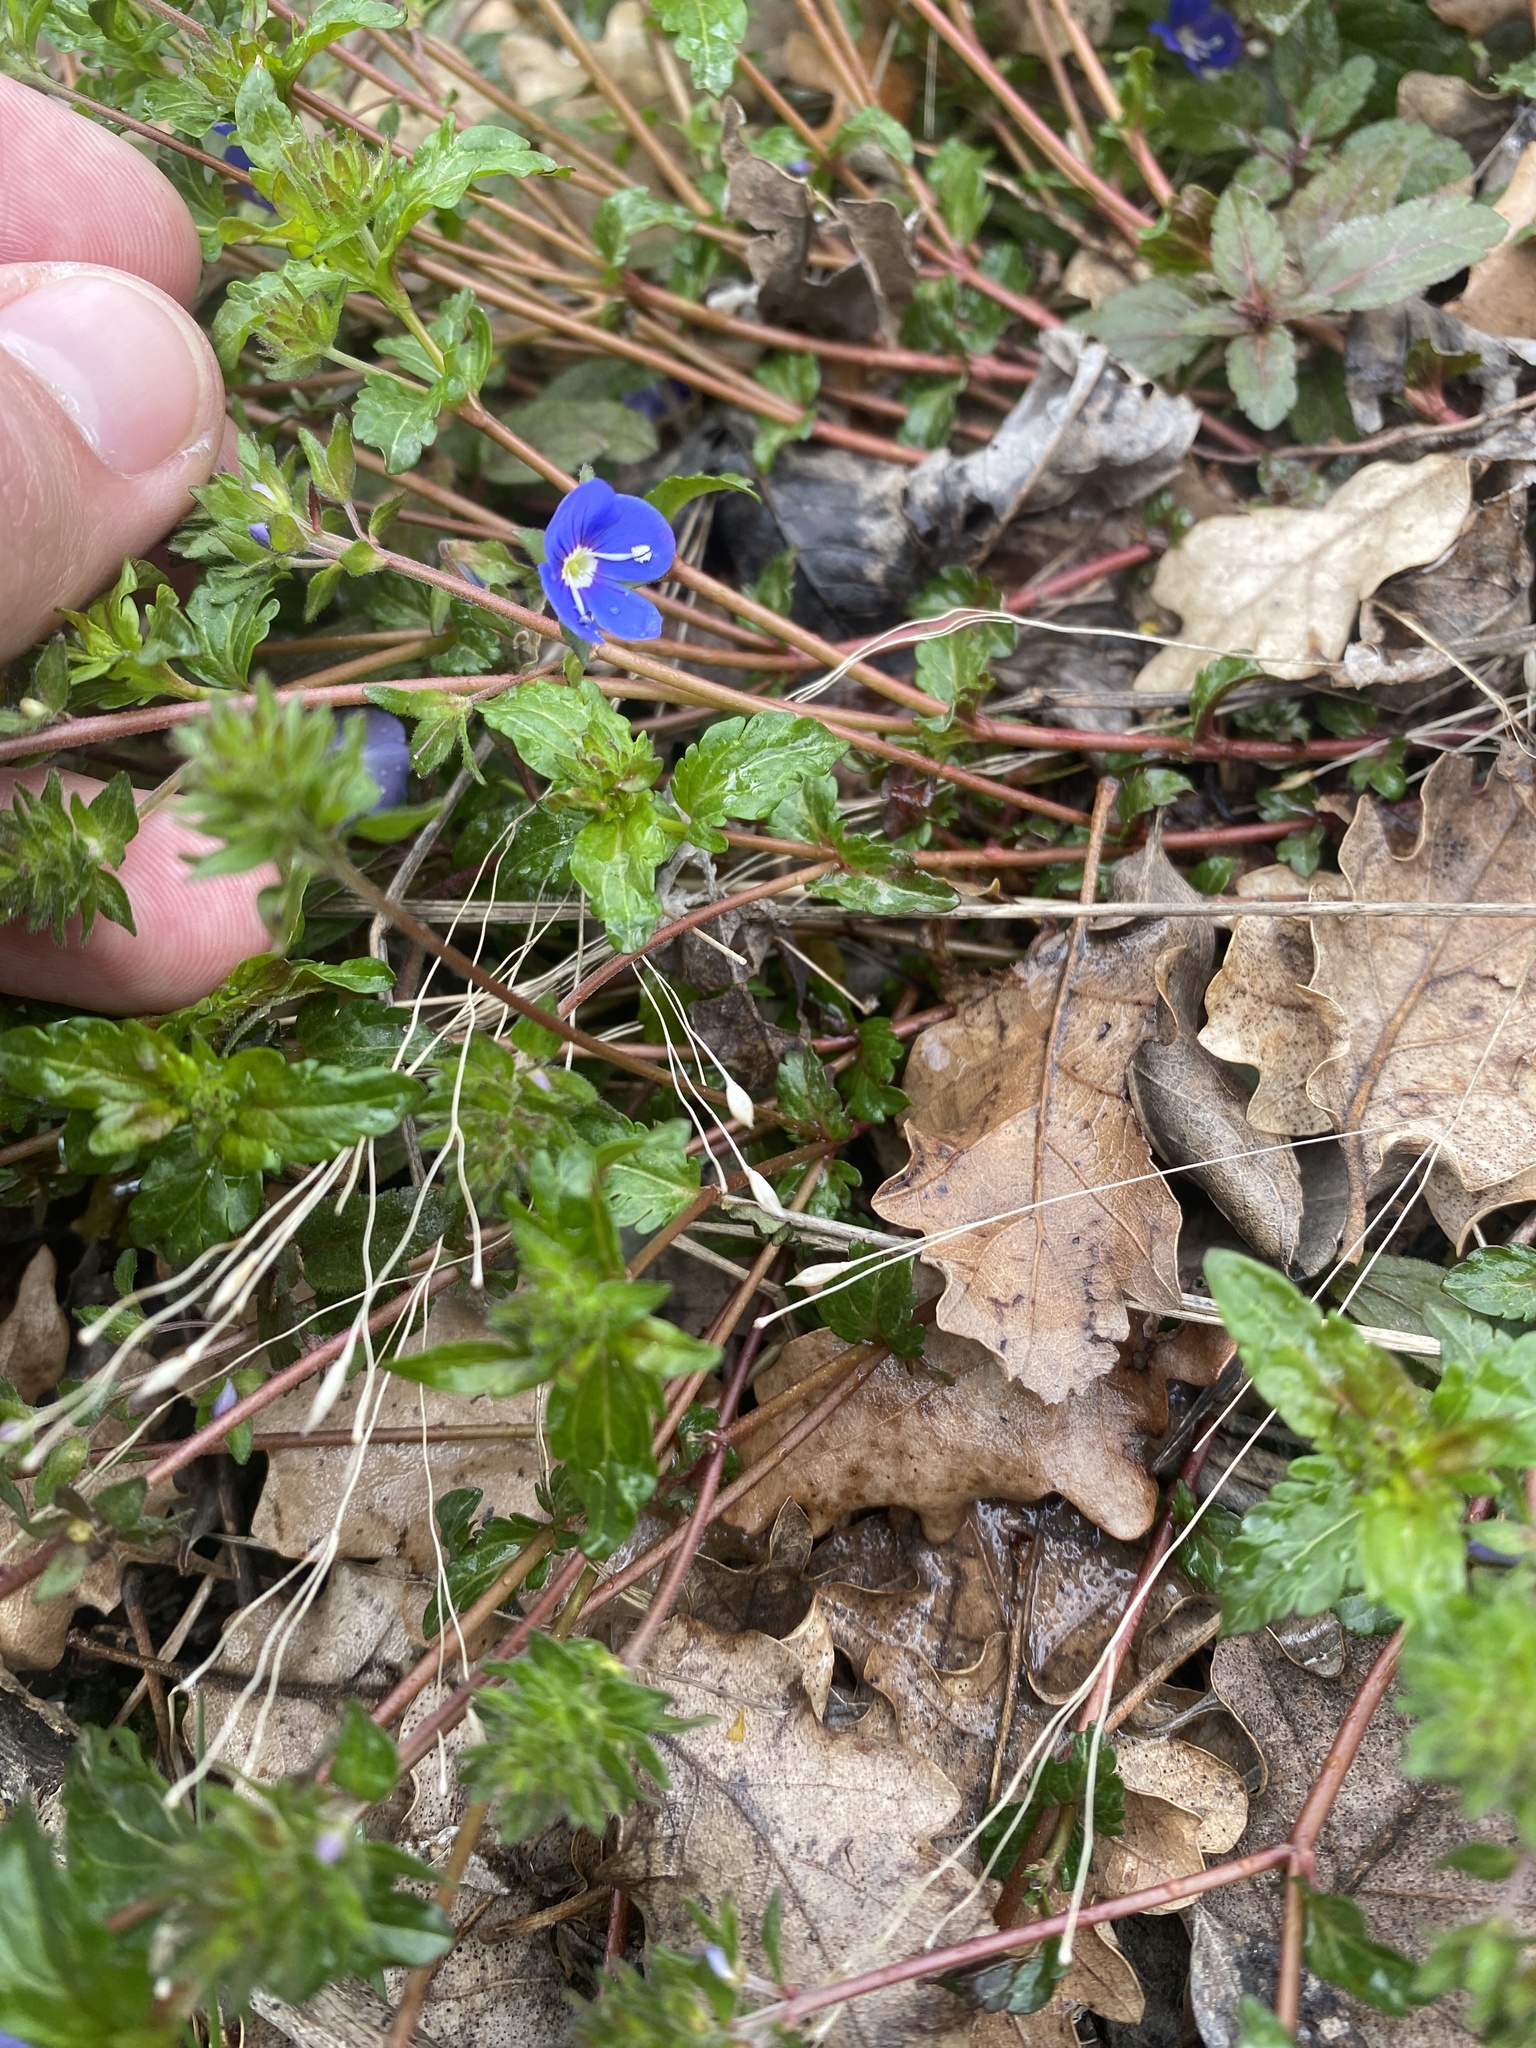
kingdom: Plantae
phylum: Tracheophyta
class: Magnoliopsida
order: Lamiales
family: Plantaginaceae
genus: Veronica
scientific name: Veronica
